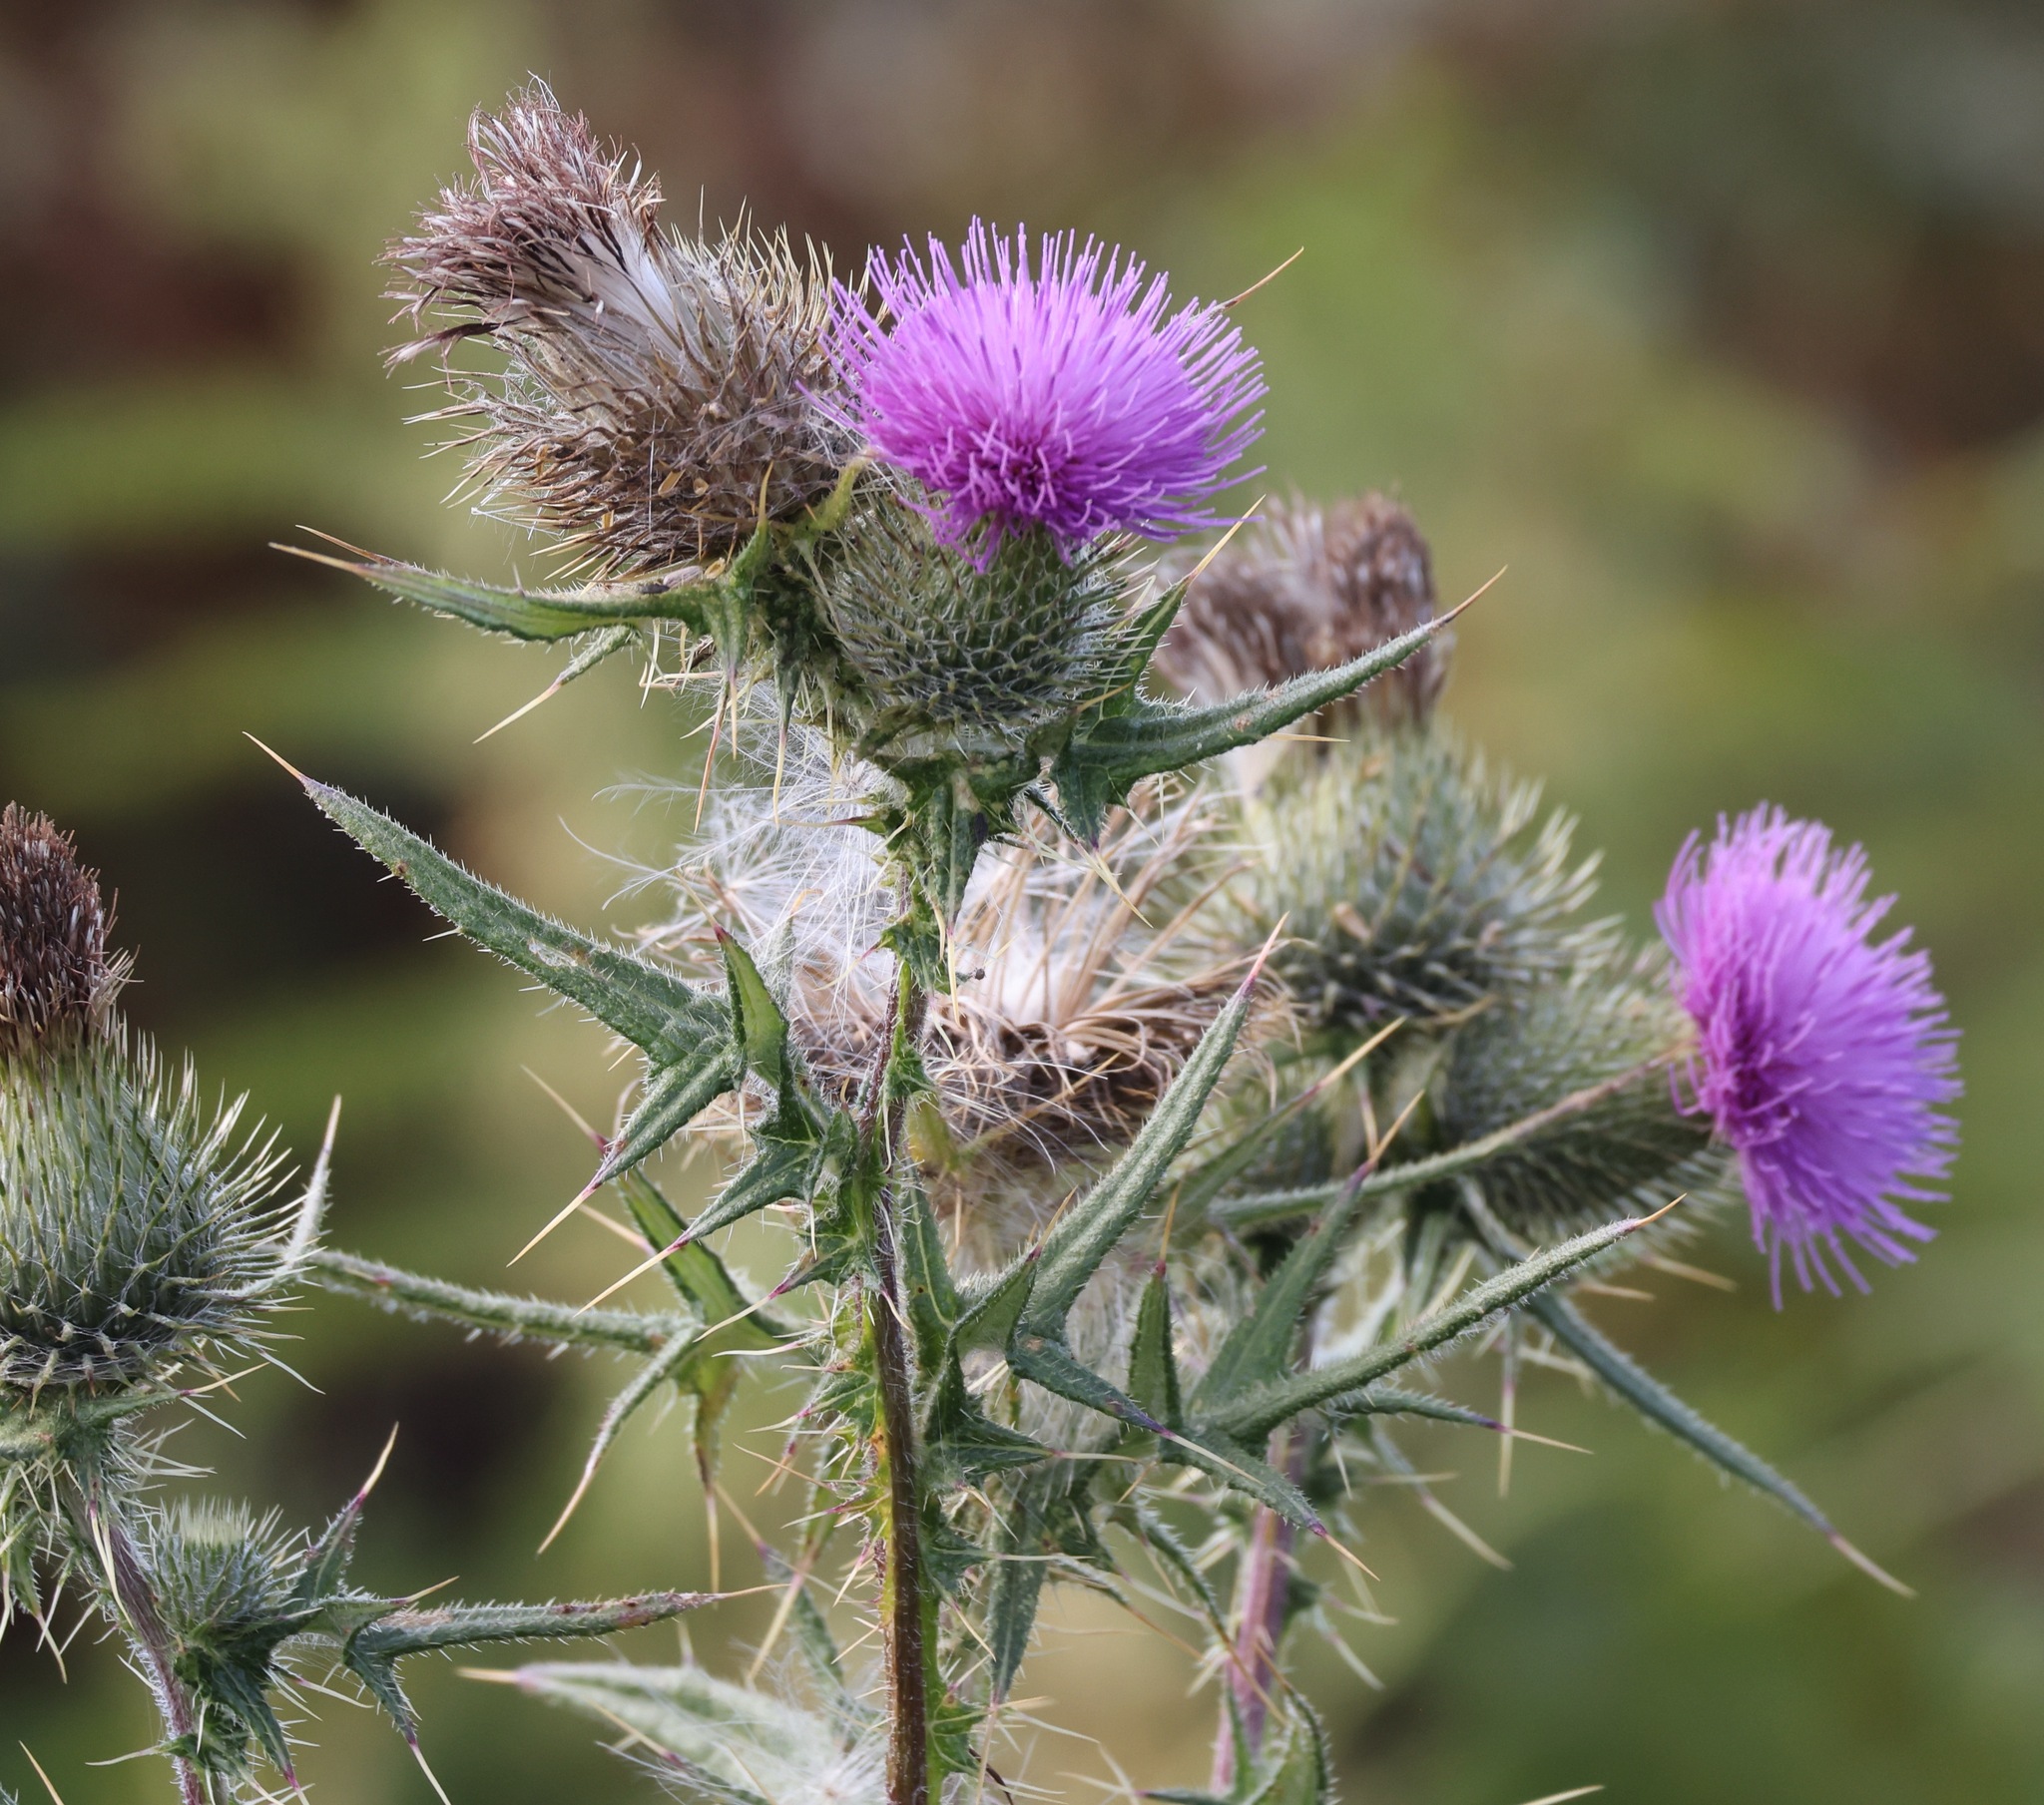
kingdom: Plantae
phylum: Tracheophyta
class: Magnoliopsida
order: Asterales
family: Asteraceae
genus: Cirsium
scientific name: Cirsium vulgare
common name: Bull thistle
